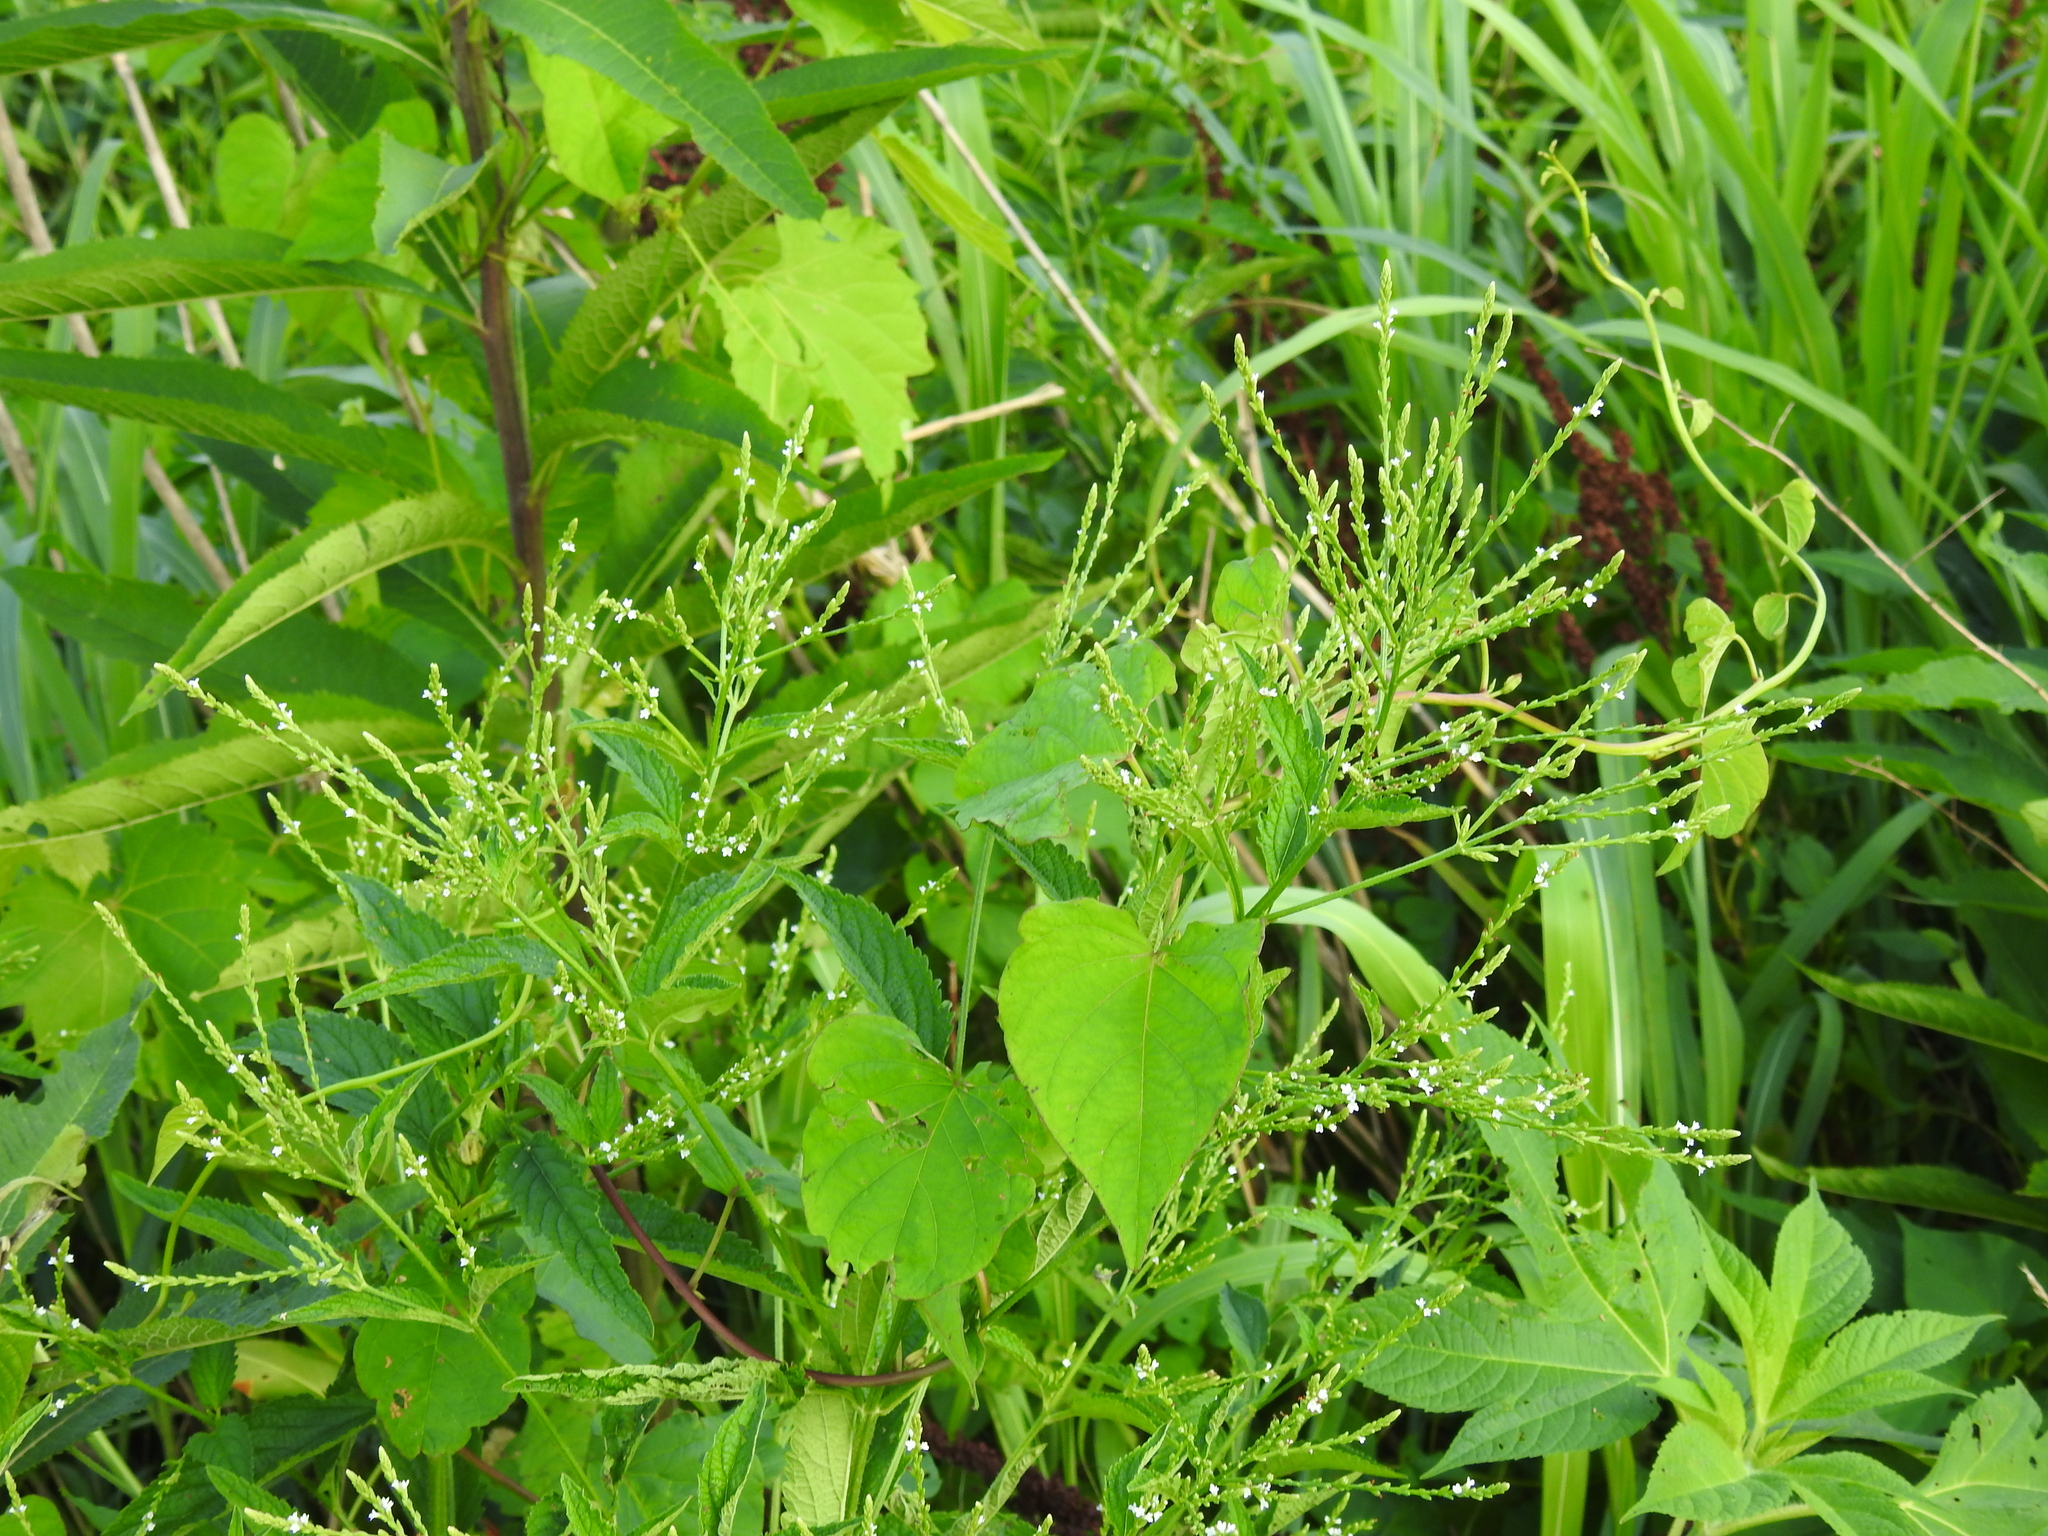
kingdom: Plantae
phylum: Tracheophyta
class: Magnoliopsida
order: Lamiales
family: Verbenaceae
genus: Verbena
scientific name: Verbena urticifolia
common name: Nettle-leaved vervain
